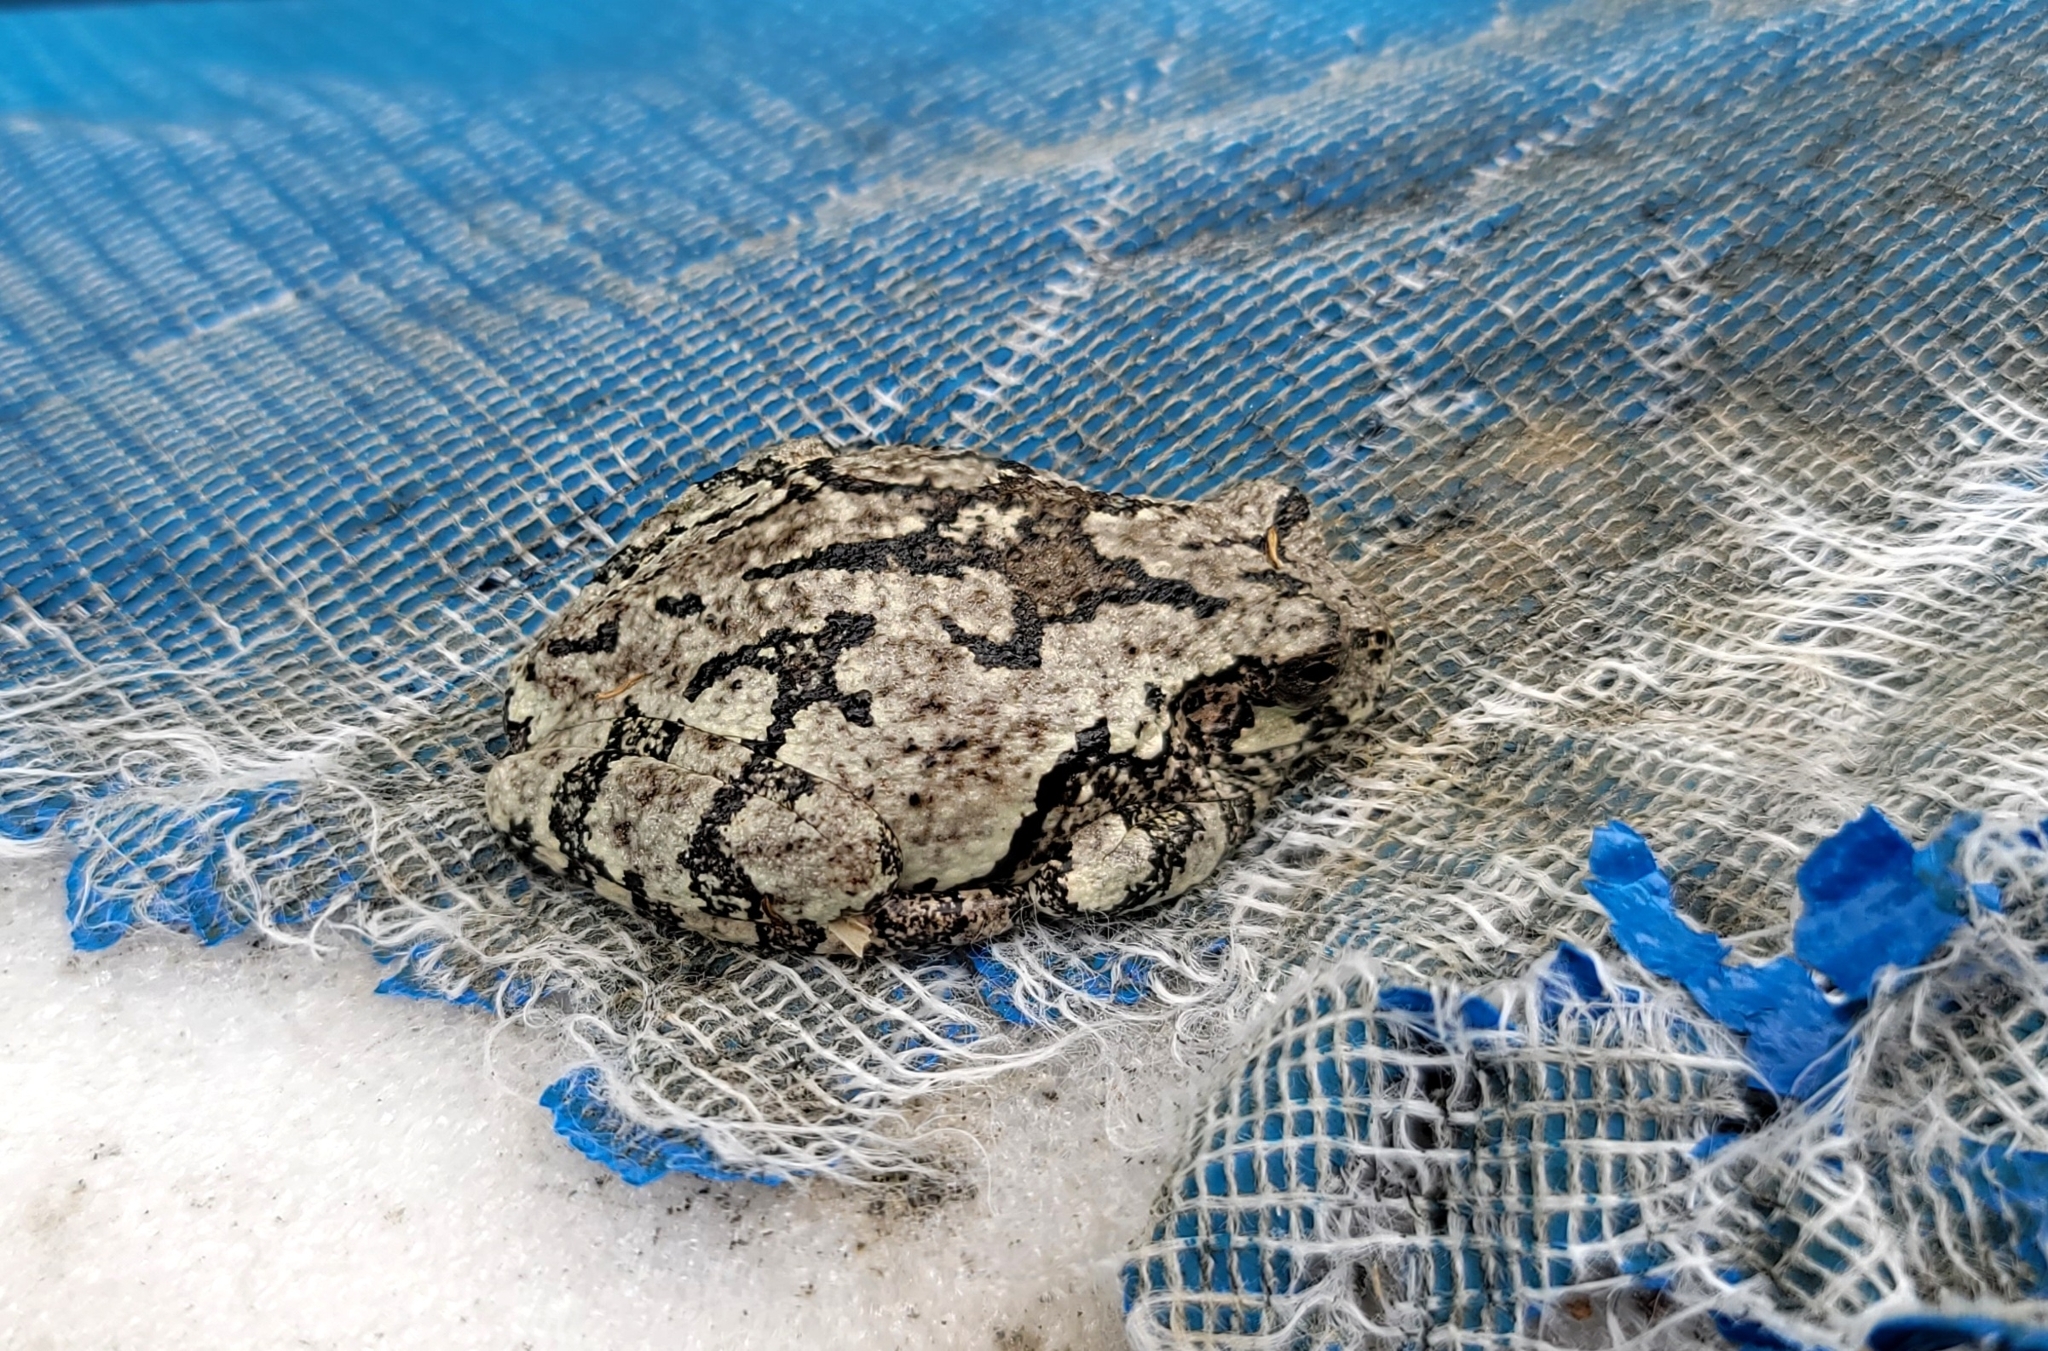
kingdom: Animalia
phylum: Chordata
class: Amphibia
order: Anura
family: Hylidae
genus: Dryophytes
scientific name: Dryophytes versicolor
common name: Gray treefrog
